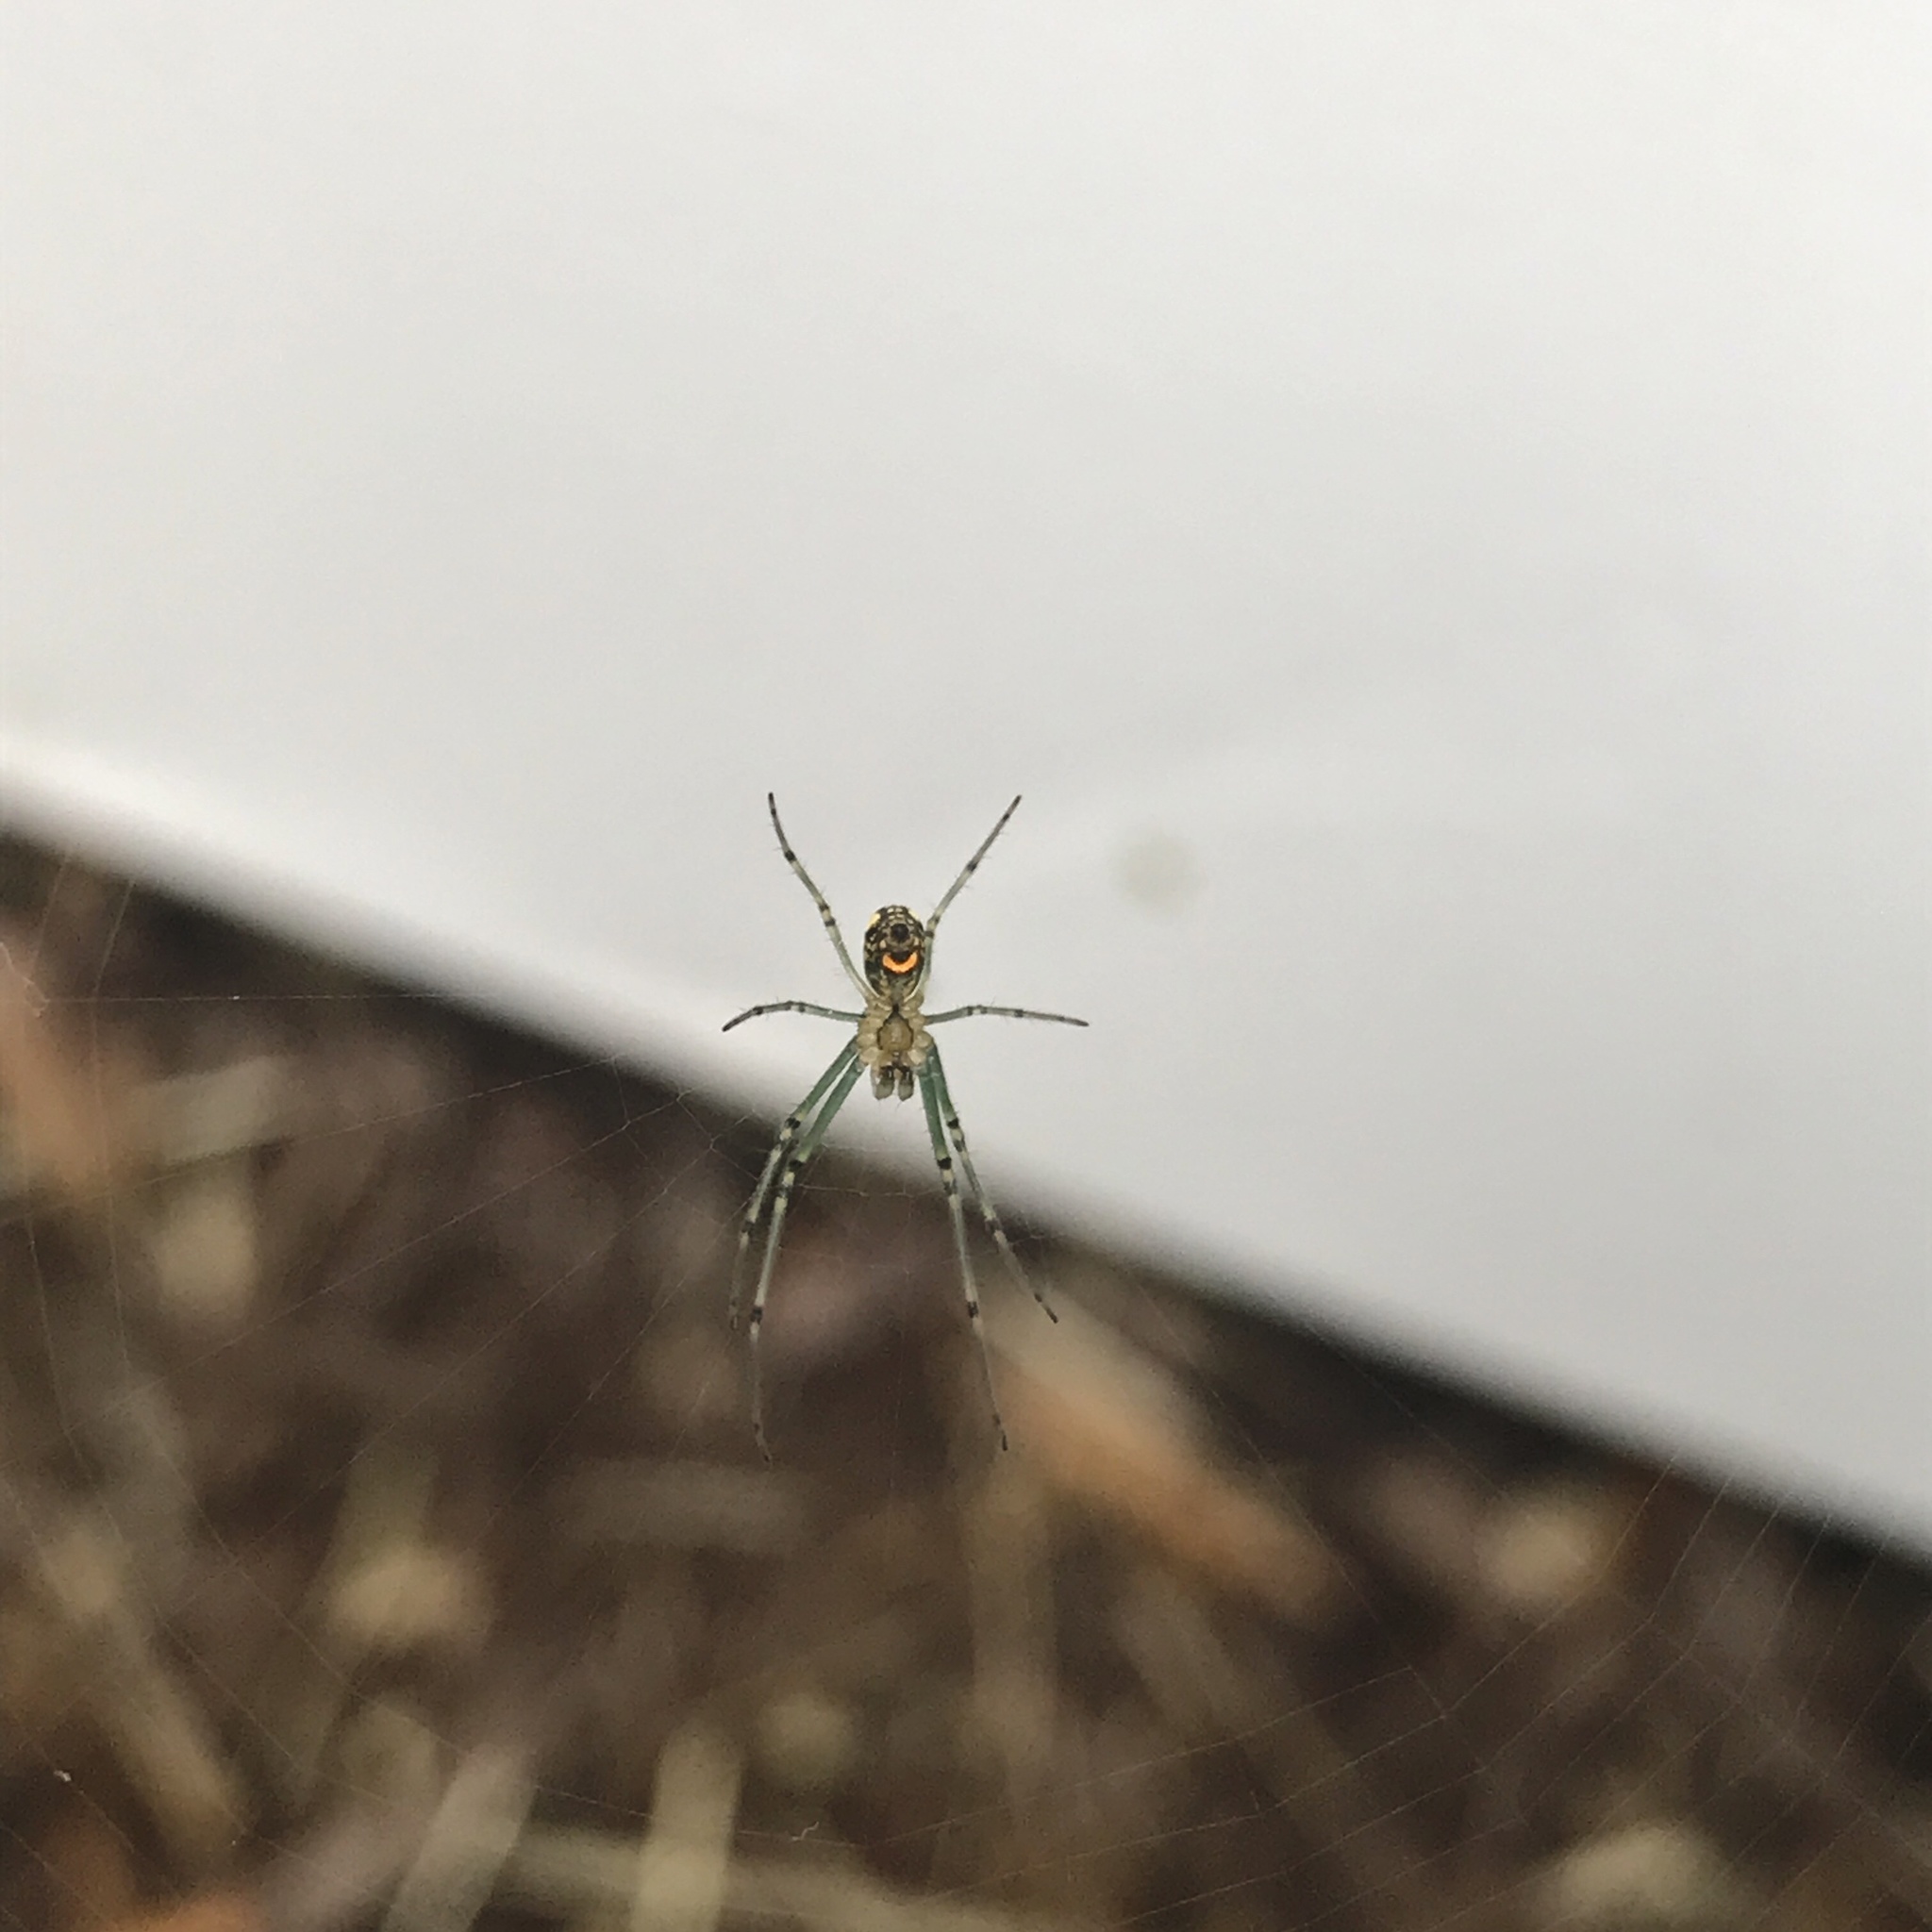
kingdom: Animalia
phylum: Arthropoda
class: Arachnida
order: Araneae
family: Tetragnathidae
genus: Leucauge
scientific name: Leucauge venusta
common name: Longjawed orb weavers
